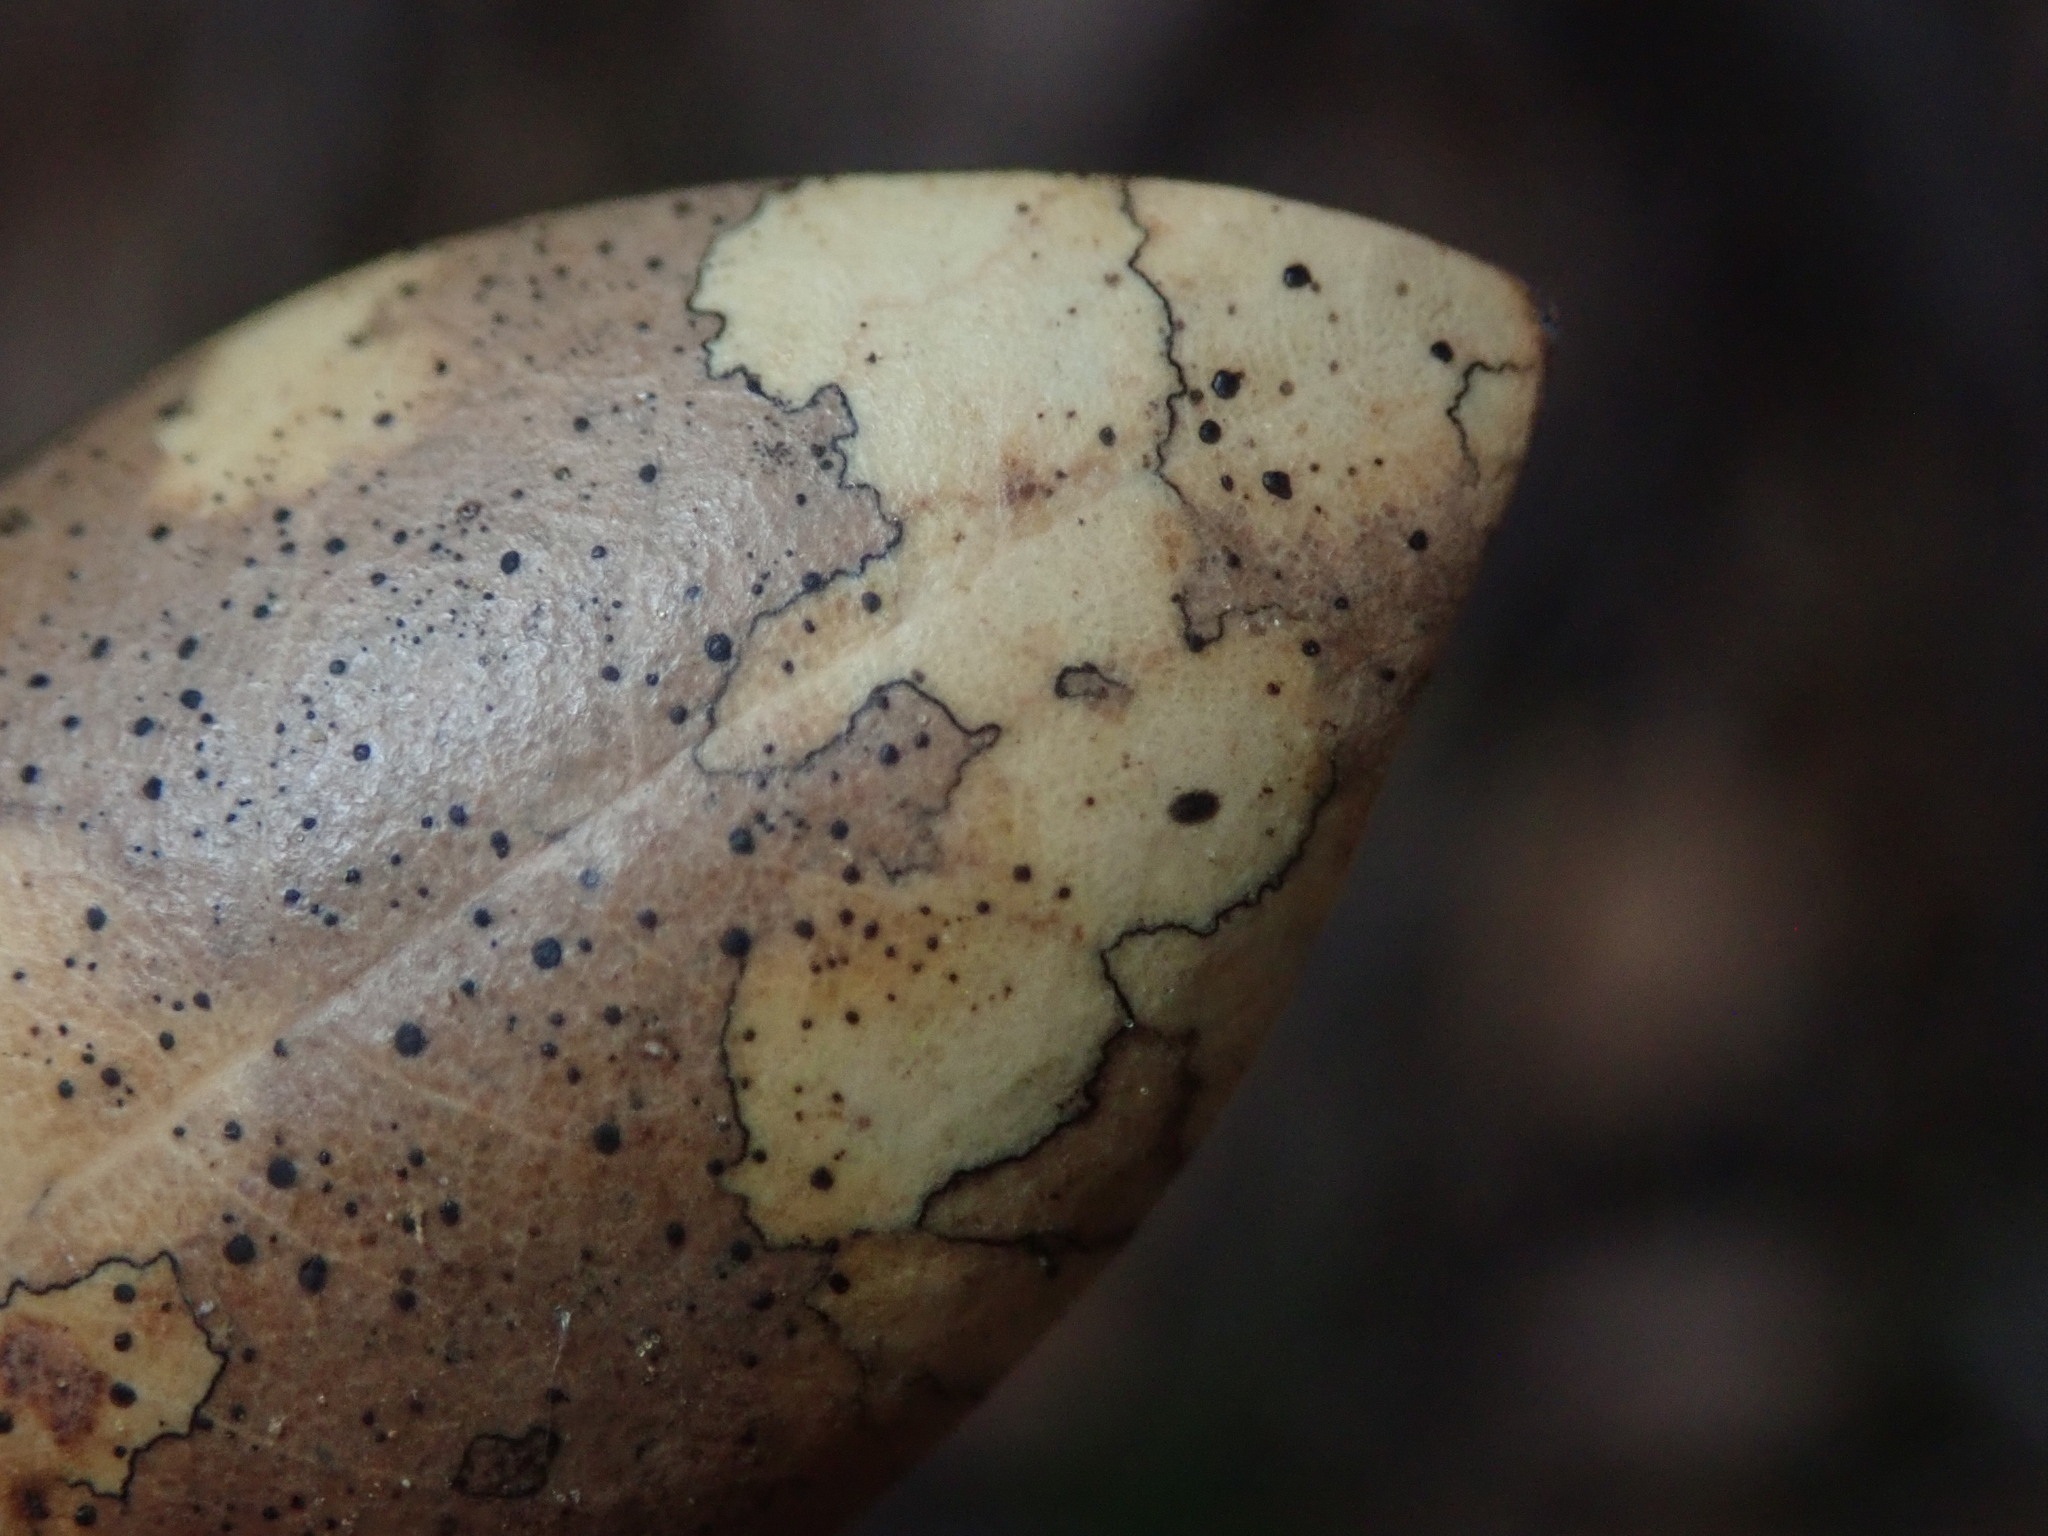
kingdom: Fungi
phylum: Ascomycota
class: Leotiomycetes
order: Rhytismatales
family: Rhytismataceae
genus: Coccomyces
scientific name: Coccomyces dentatus
